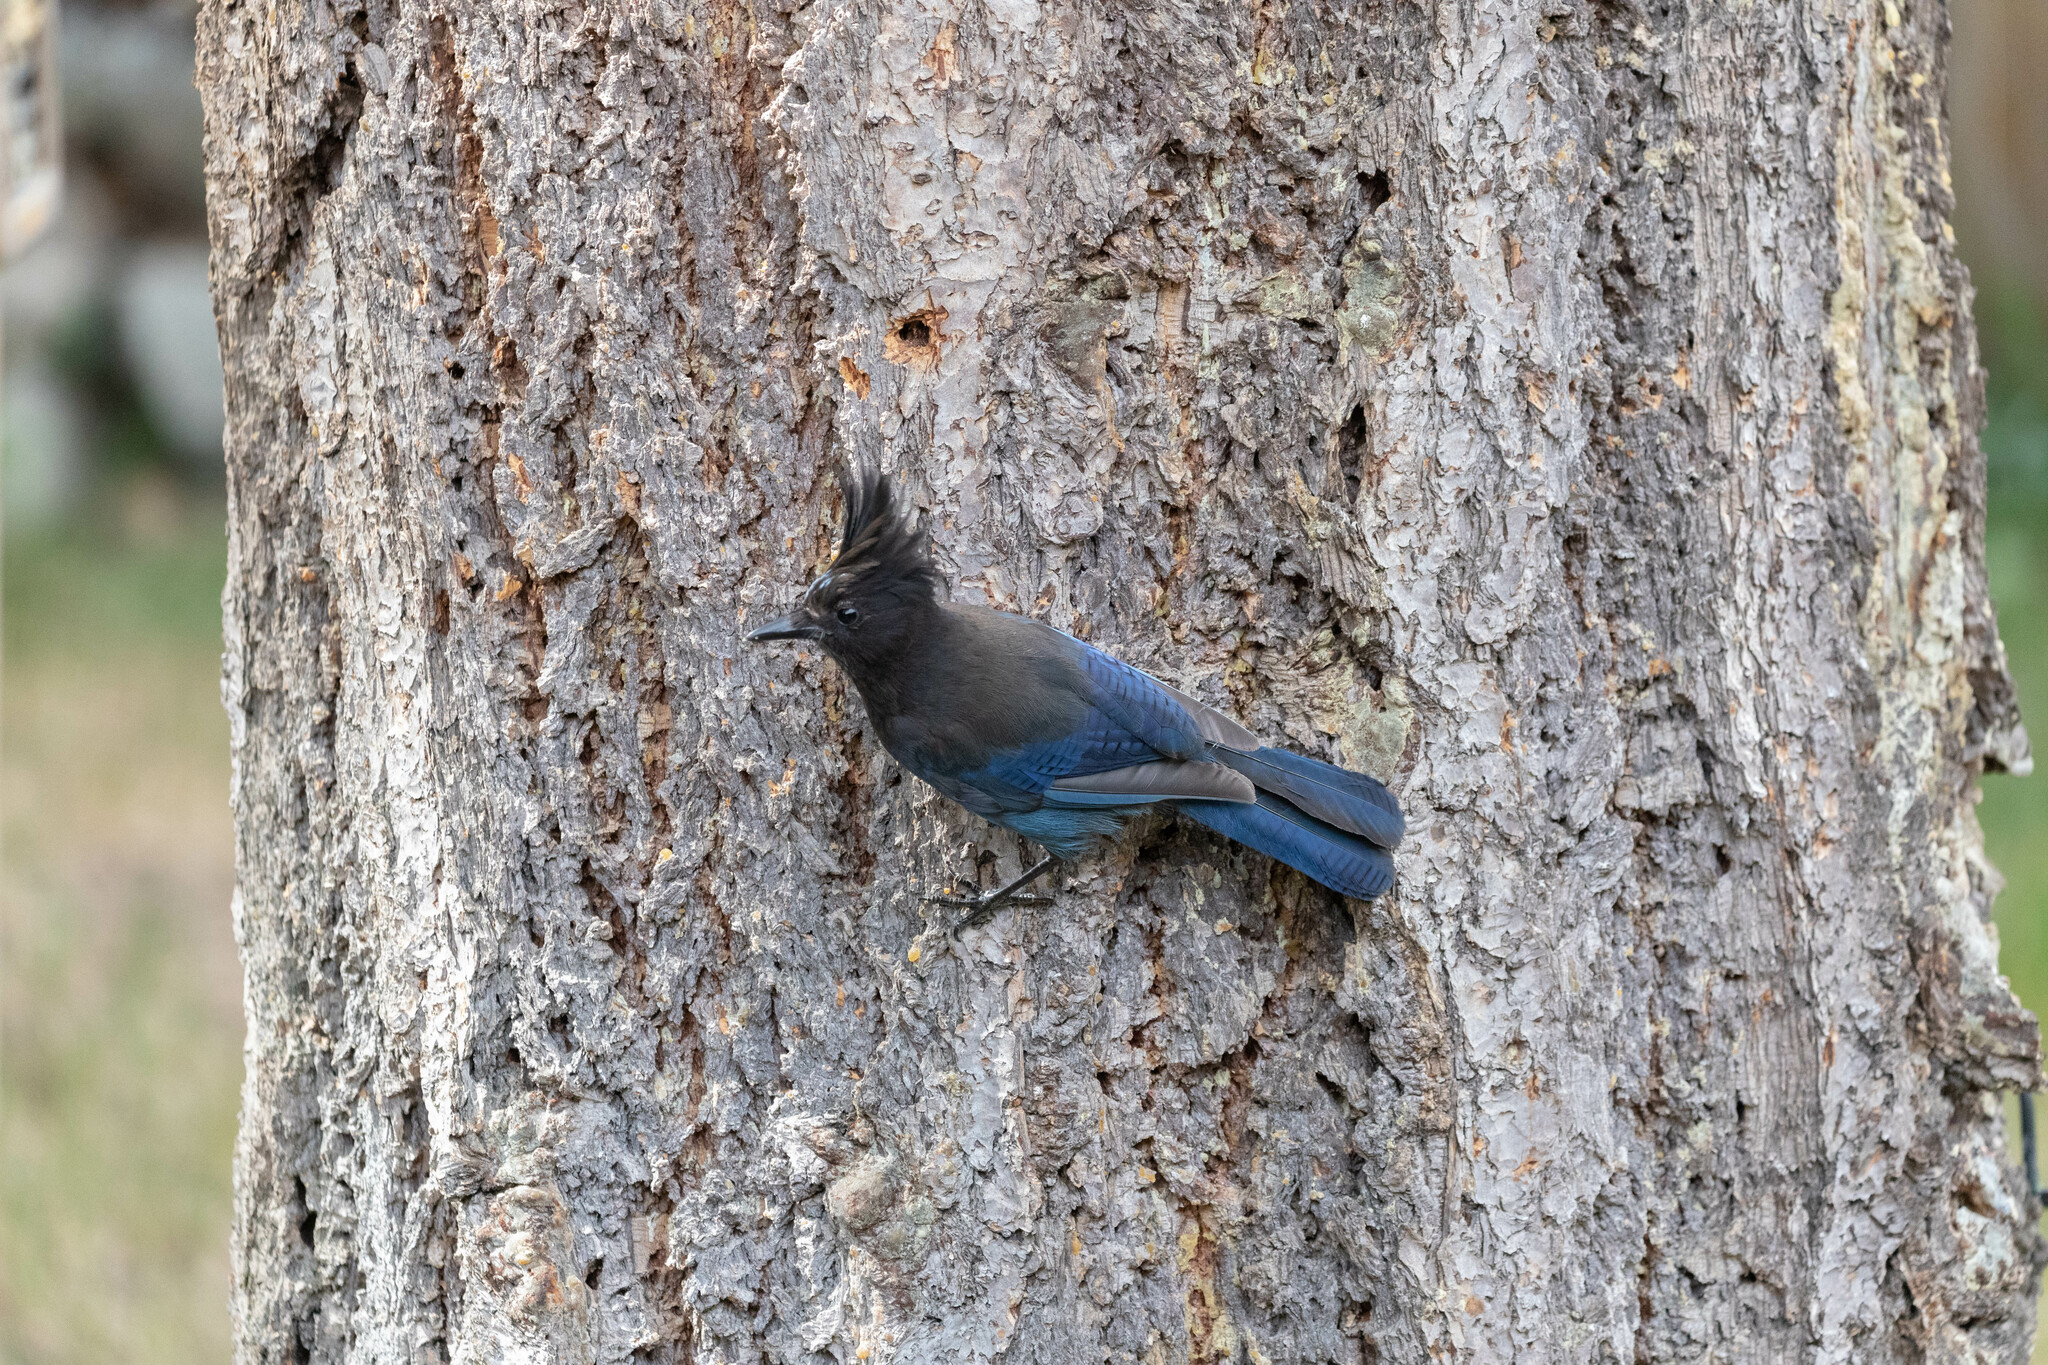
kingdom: Animalia
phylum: Chordata
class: Aves
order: Passeriformes
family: Corvidae
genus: Cyanocitta
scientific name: Cyanocitta stelleri
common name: Steller's jay
